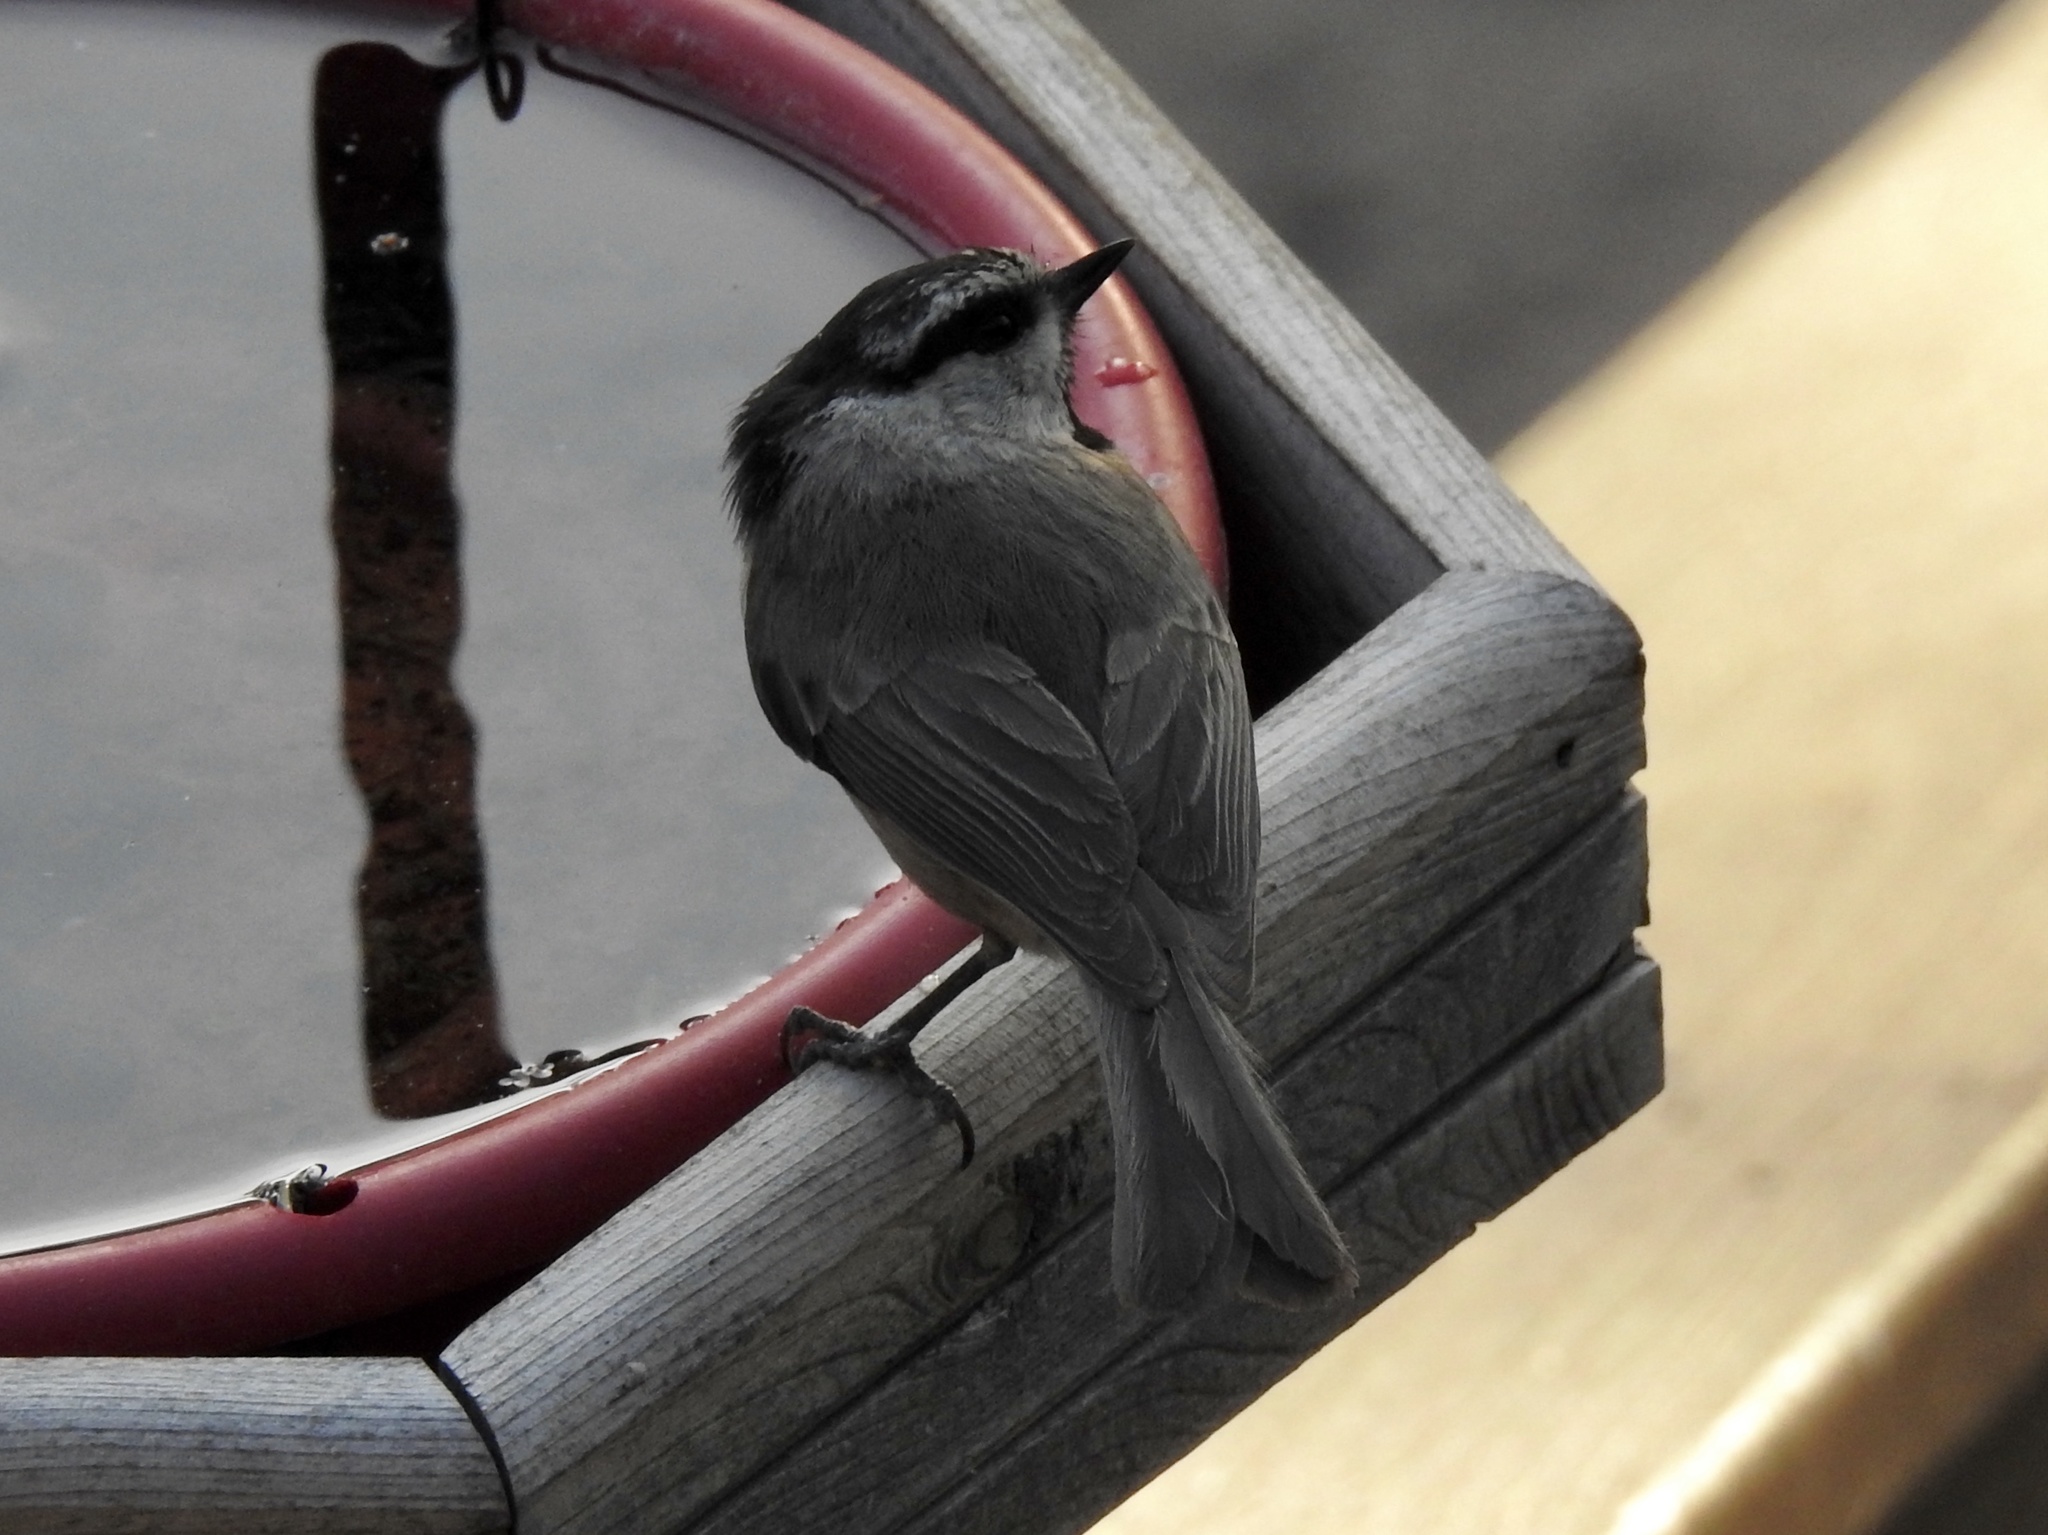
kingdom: Animalia
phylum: Chordata
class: Aves
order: Passeriformes
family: Paridae
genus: Poecile
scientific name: Poecile gambeli
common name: Mountain chickadee
